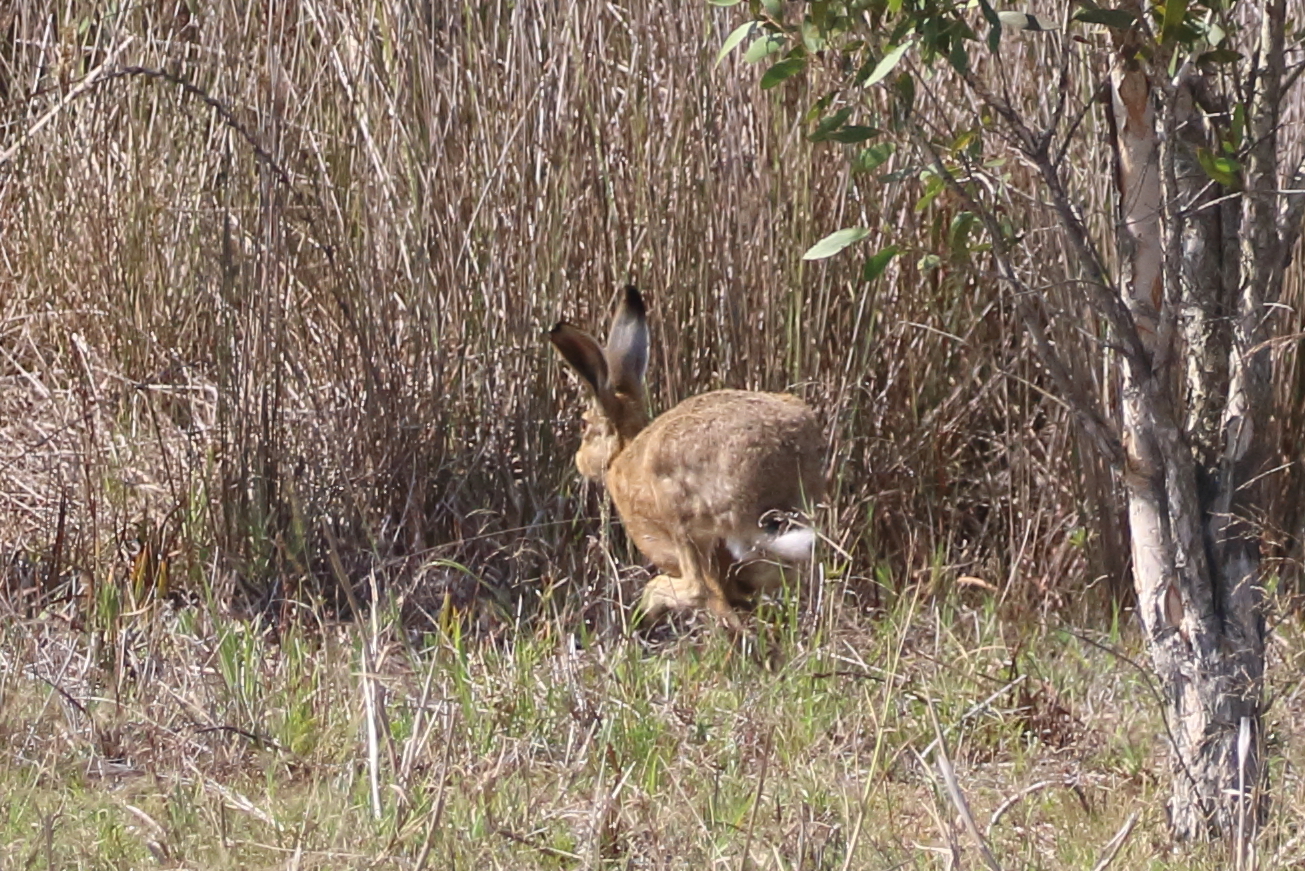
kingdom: Animalia
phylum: Chordata
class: Mammalia
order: Lagomorpha
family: Leporidae
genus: Lepus
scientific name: Lepus europaeus
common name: European hare
